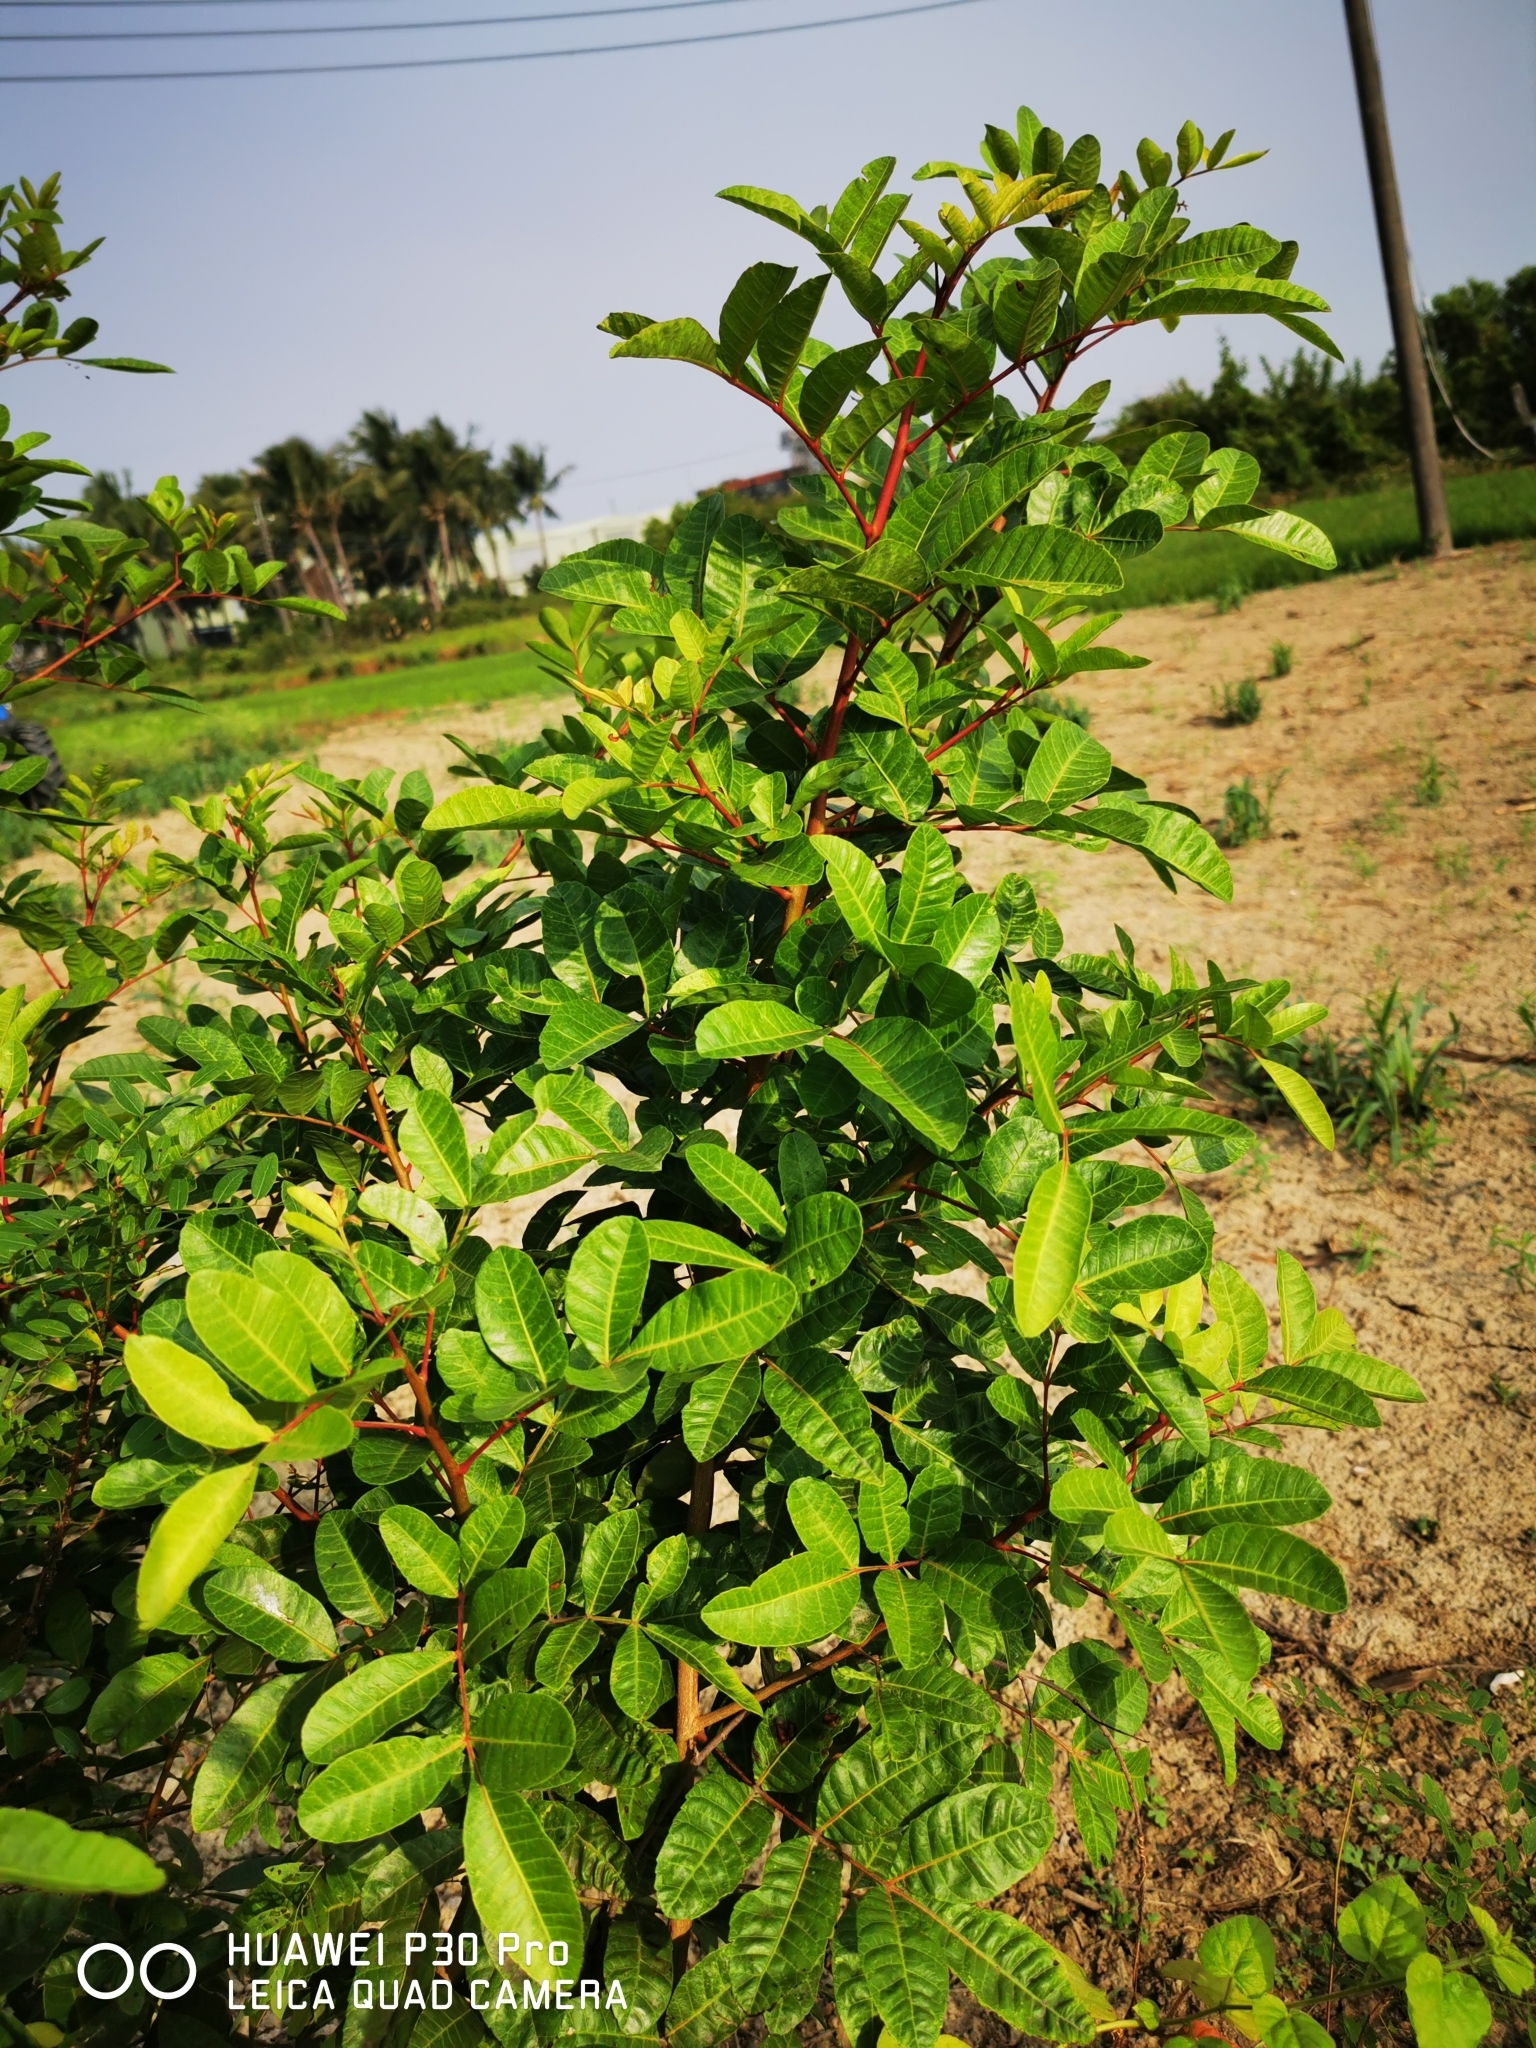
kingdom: Plantae
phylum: Tracheophyta
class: Magnoliopsida
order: Sapindales
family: Anacardiaceae
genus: Schinus
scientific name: Schinus terebinthifolia
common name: Brazilian peppertree
